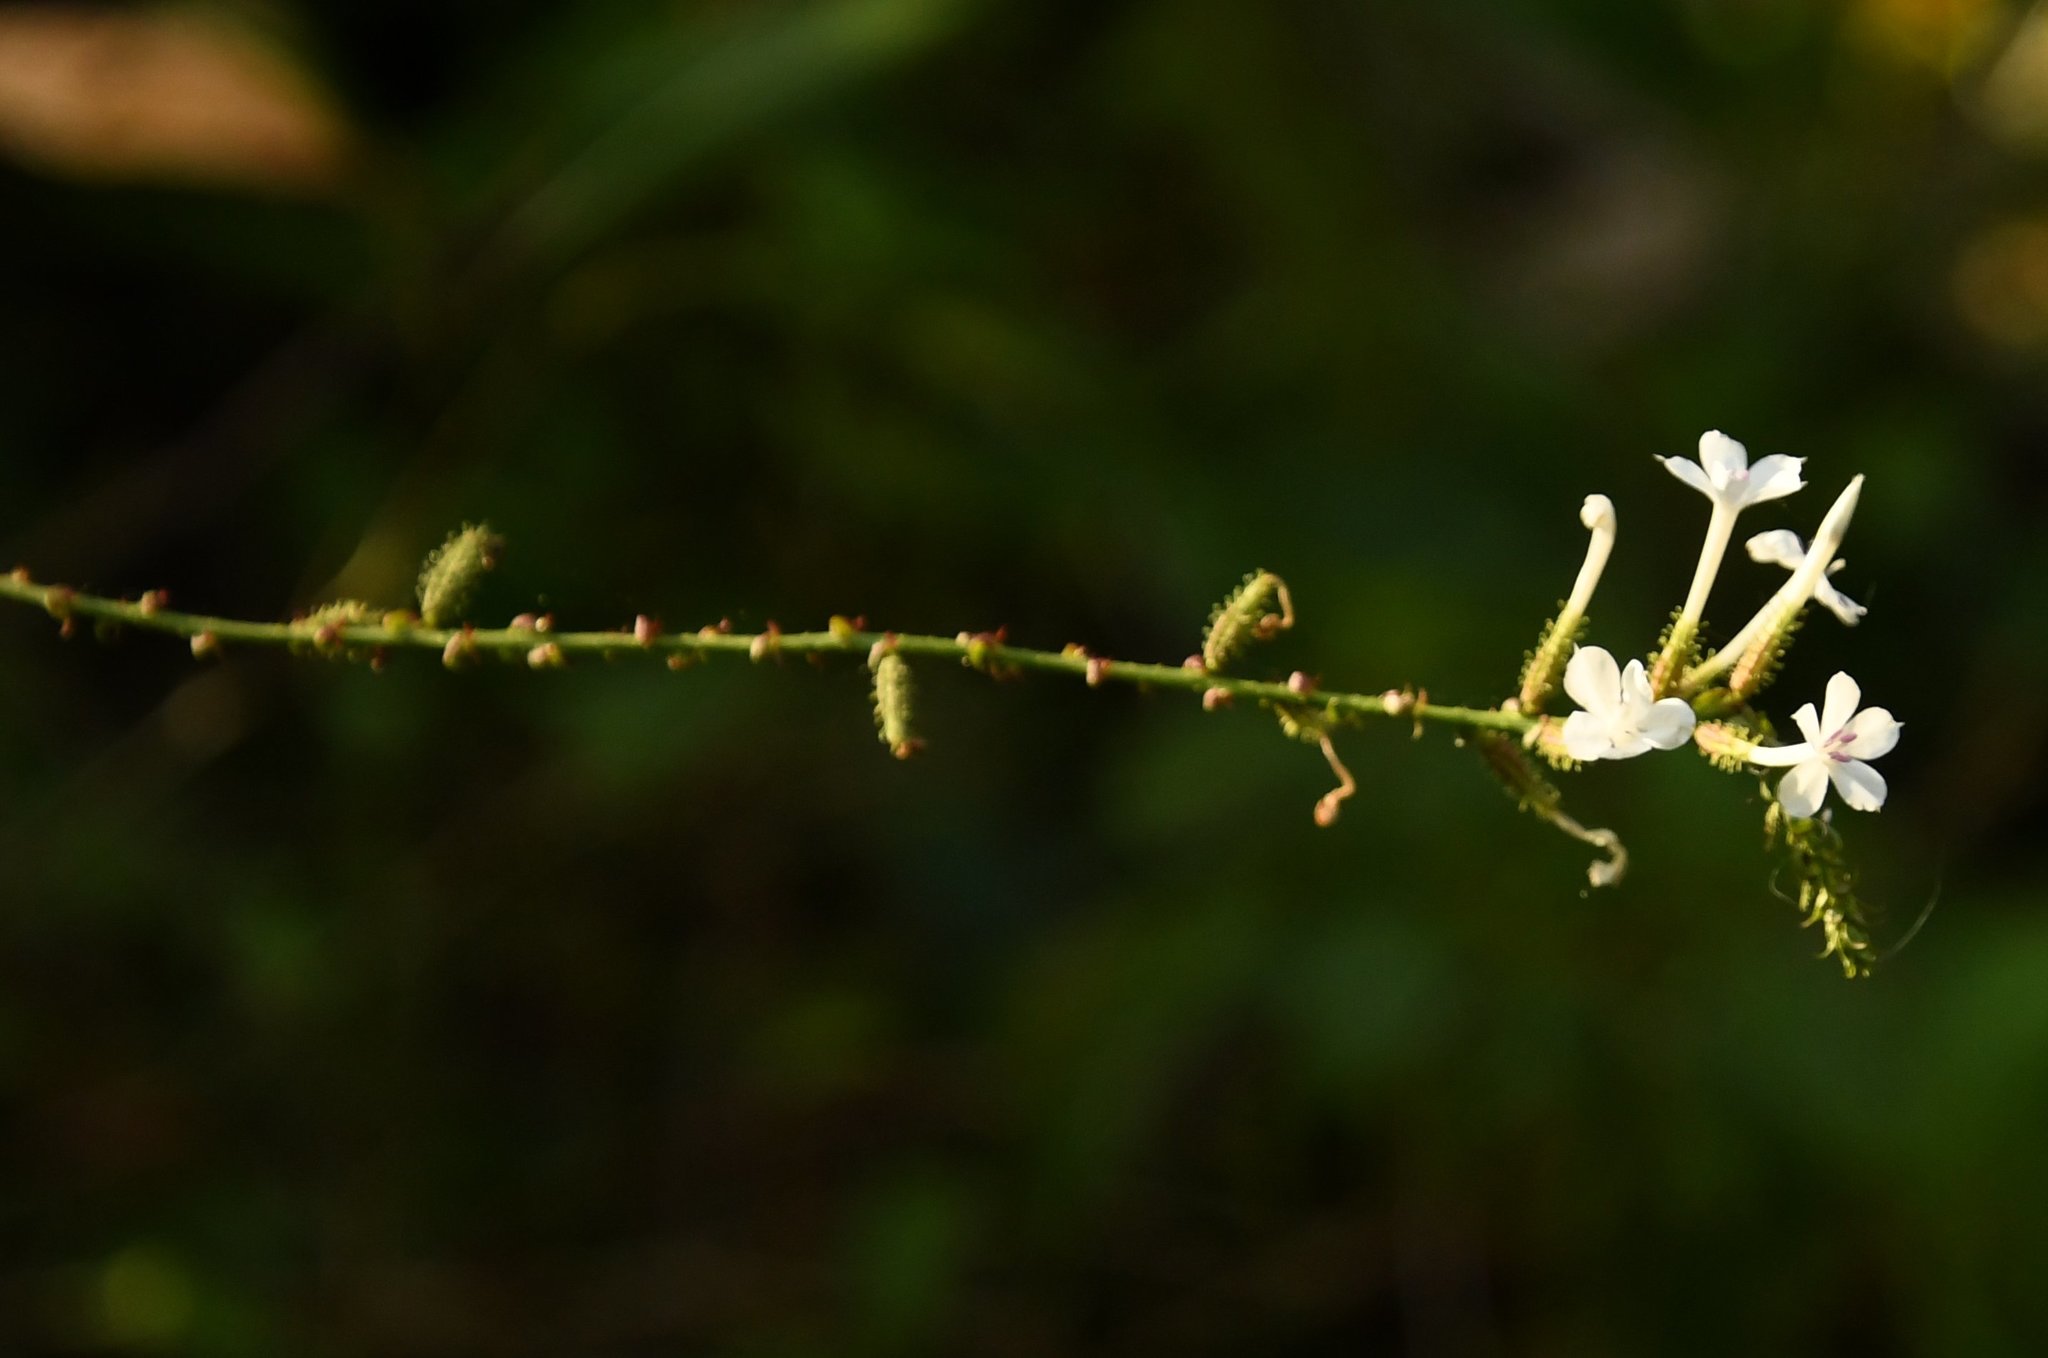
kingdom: Plantae
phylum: Tracheophyta
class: Magnoliopsida
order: Caryophyllales
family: Plumbaginaceae
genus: Plumbago
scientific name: Plumbago zeylanica
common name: Doctorbush
